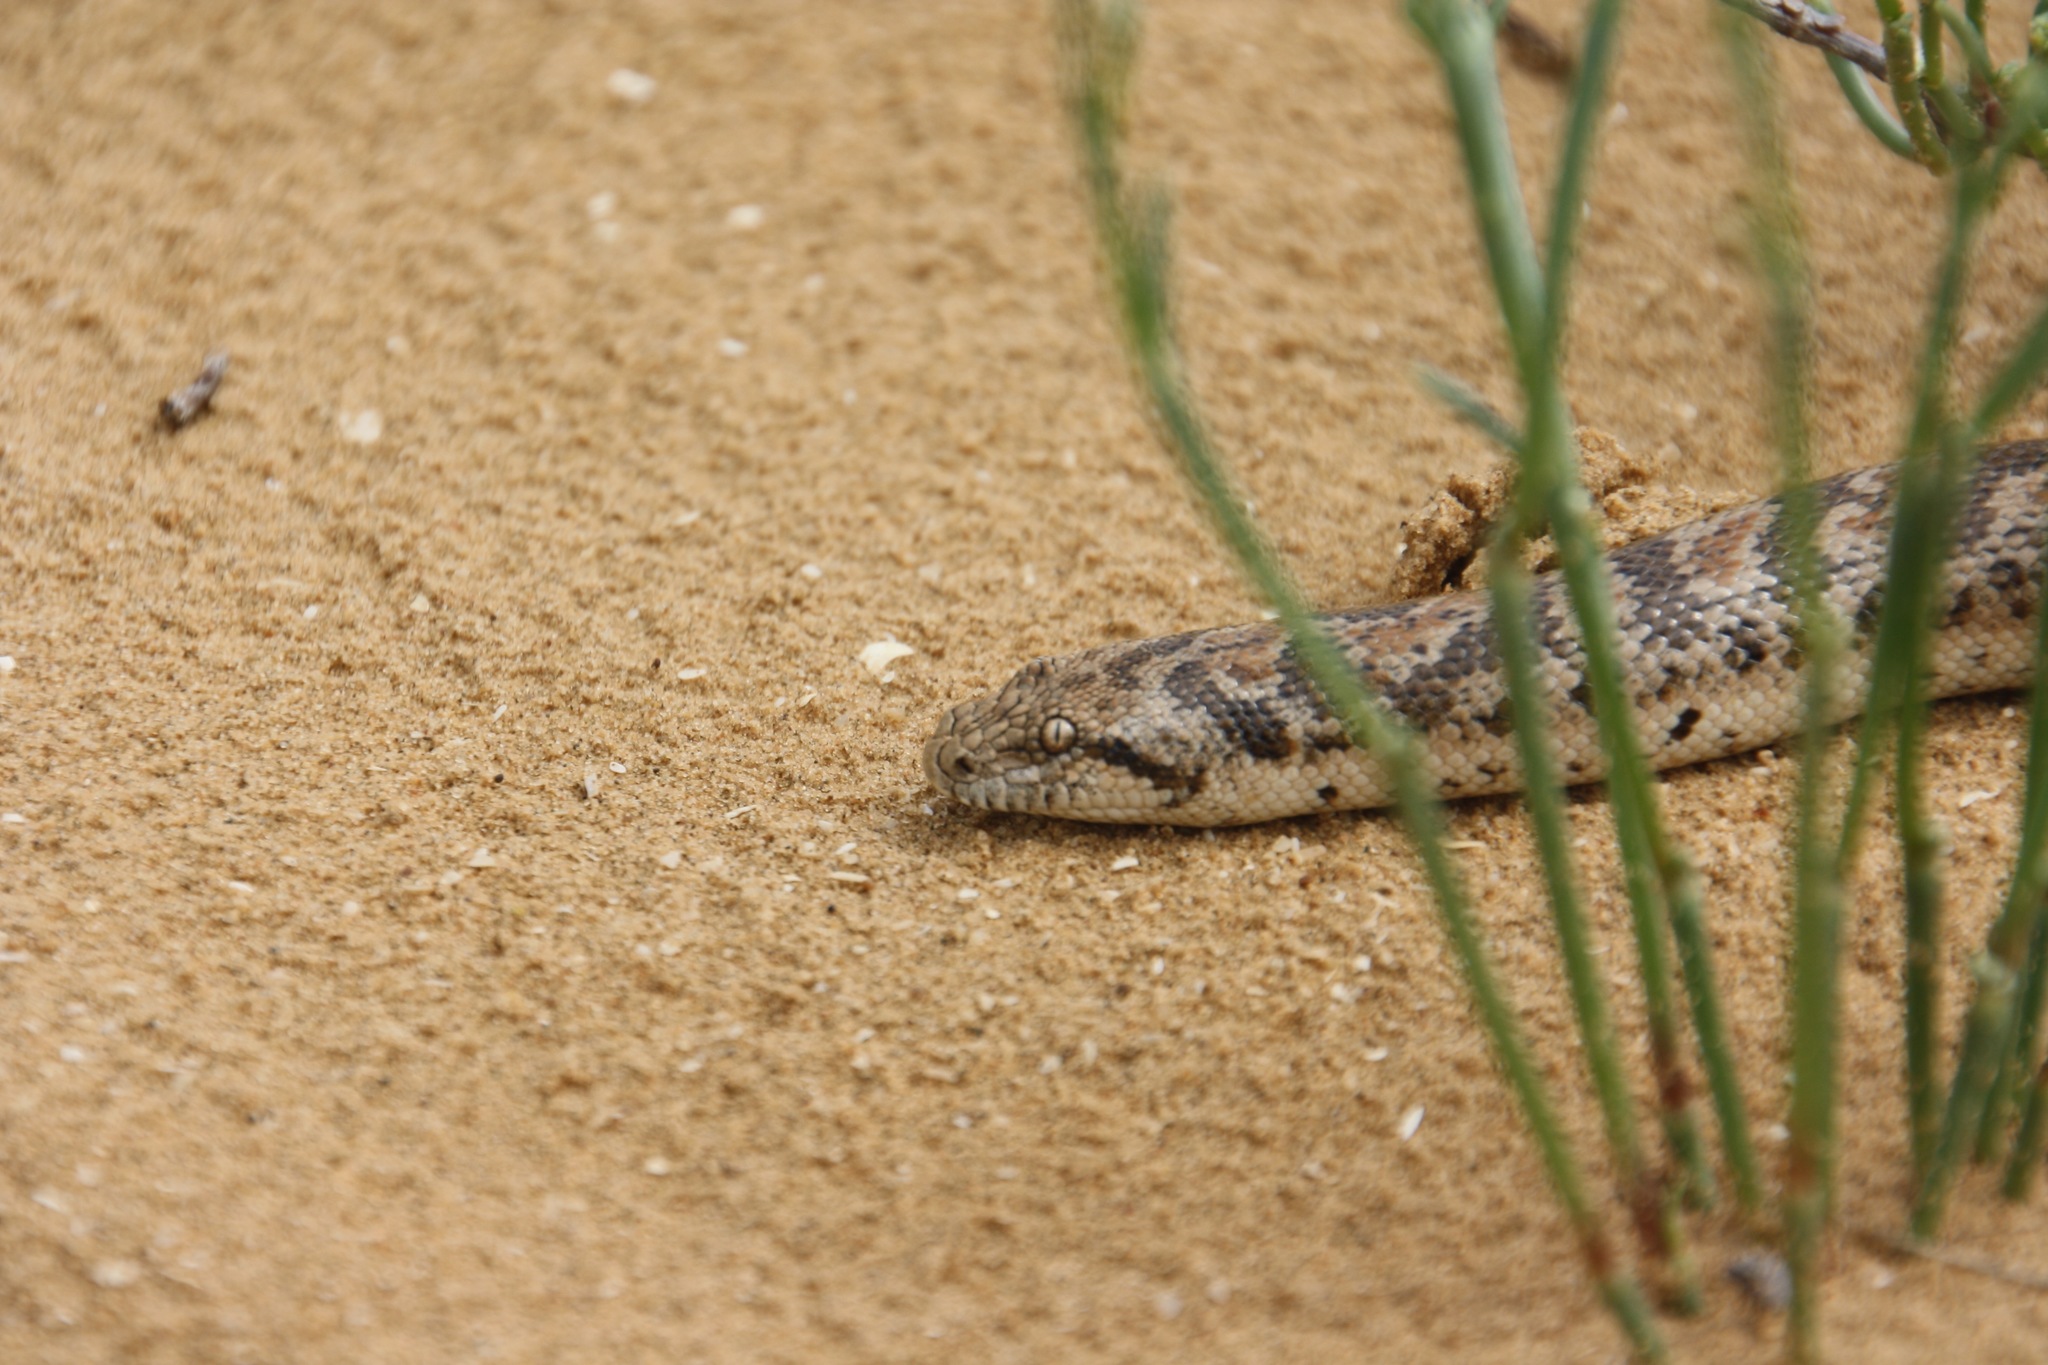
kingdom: Animalia
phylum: Chordata
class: Squamata
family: Boidae
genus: Eryx
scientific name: Eryx miliaris
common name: Desert sand boa
